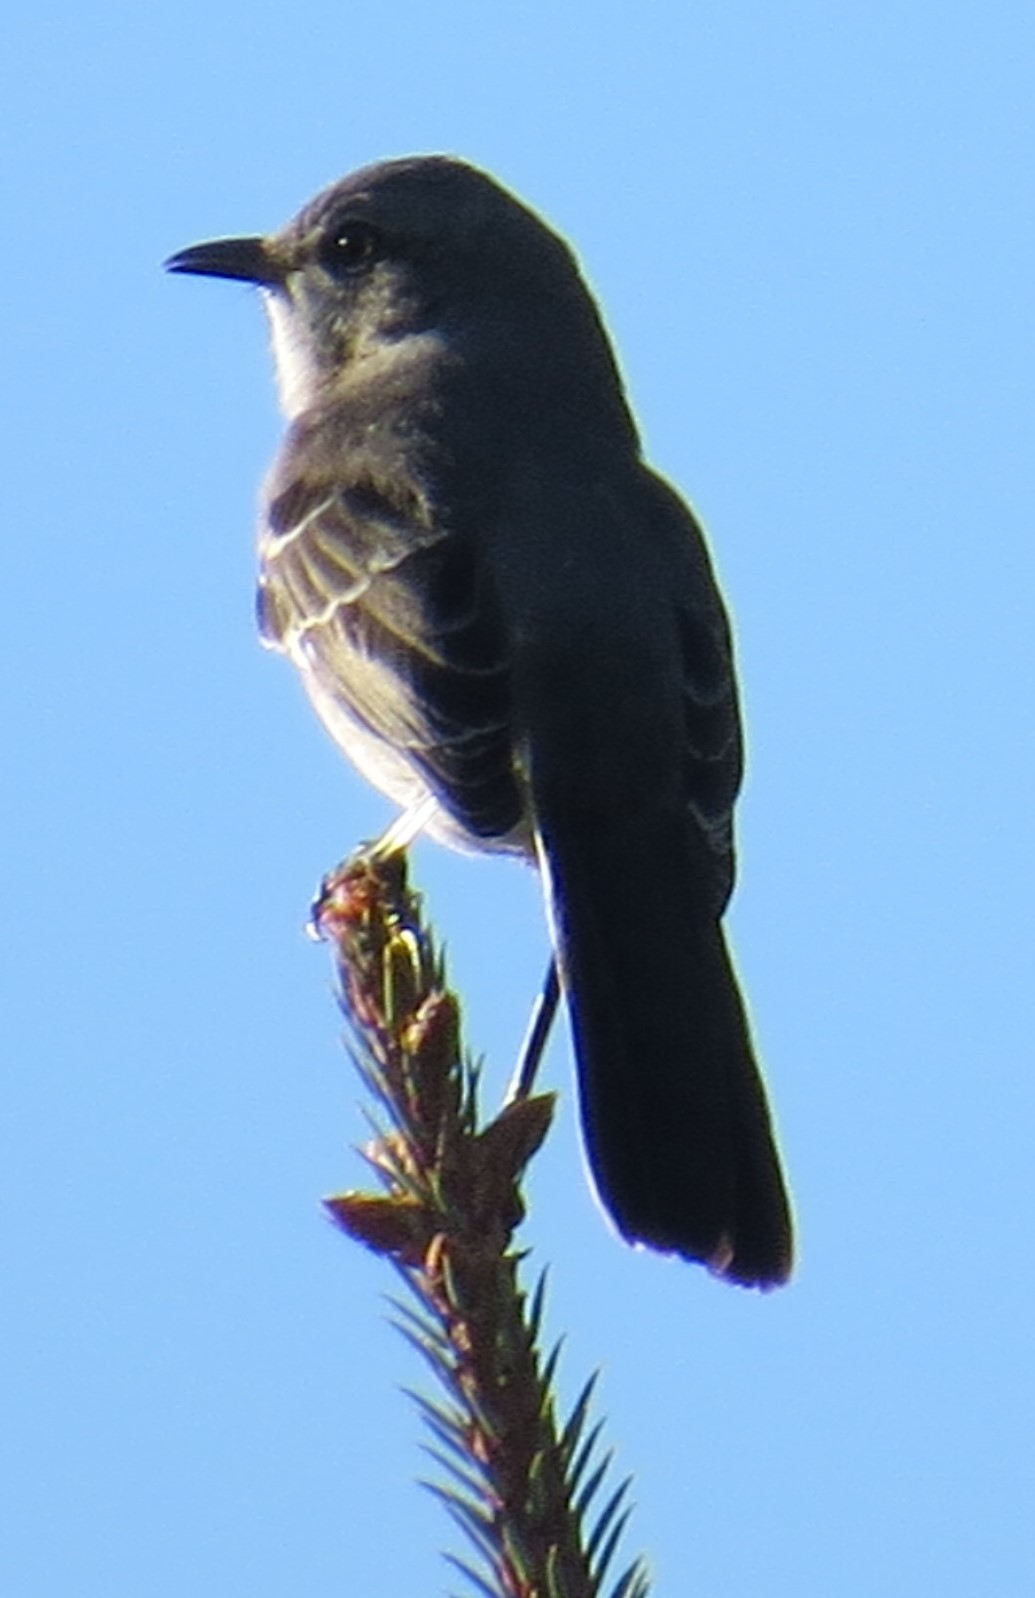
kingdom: Animalia
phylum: Chordata
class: Aves
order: Passeriformes
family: Mimidae
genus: Mimus
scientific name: Mimus polyglottos
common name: Northern mockingbird
